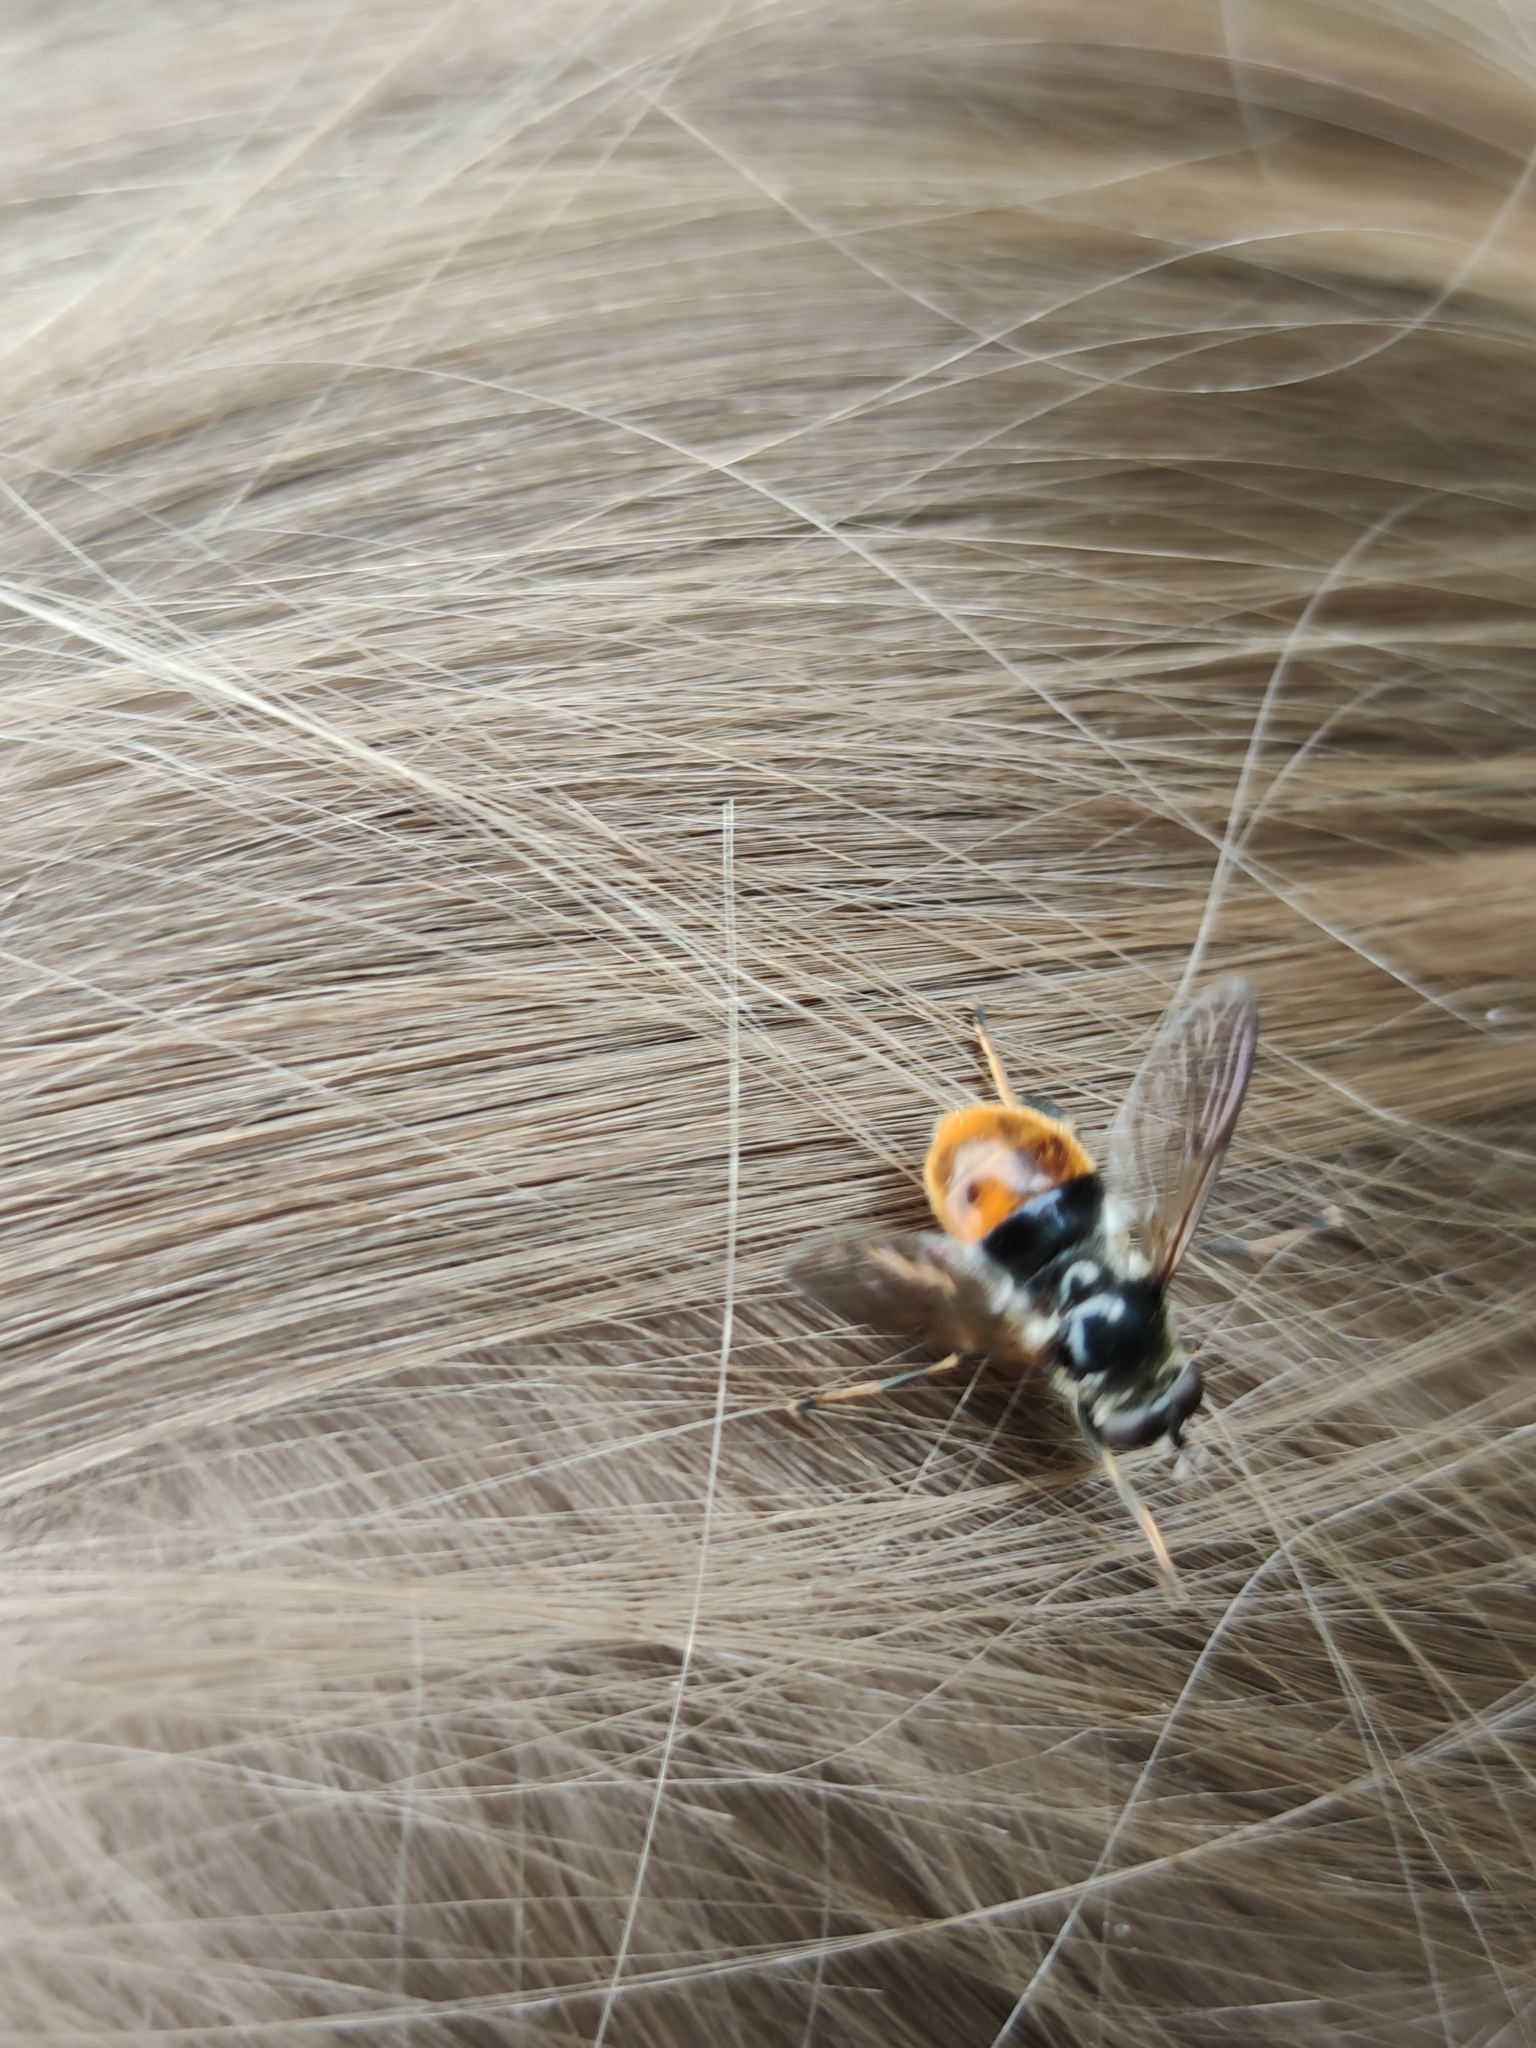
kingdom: Animalia
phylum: Arthropoda
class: Insecta
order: Diptera
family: Syrphidae
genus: Blera
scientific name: Blera fallax
